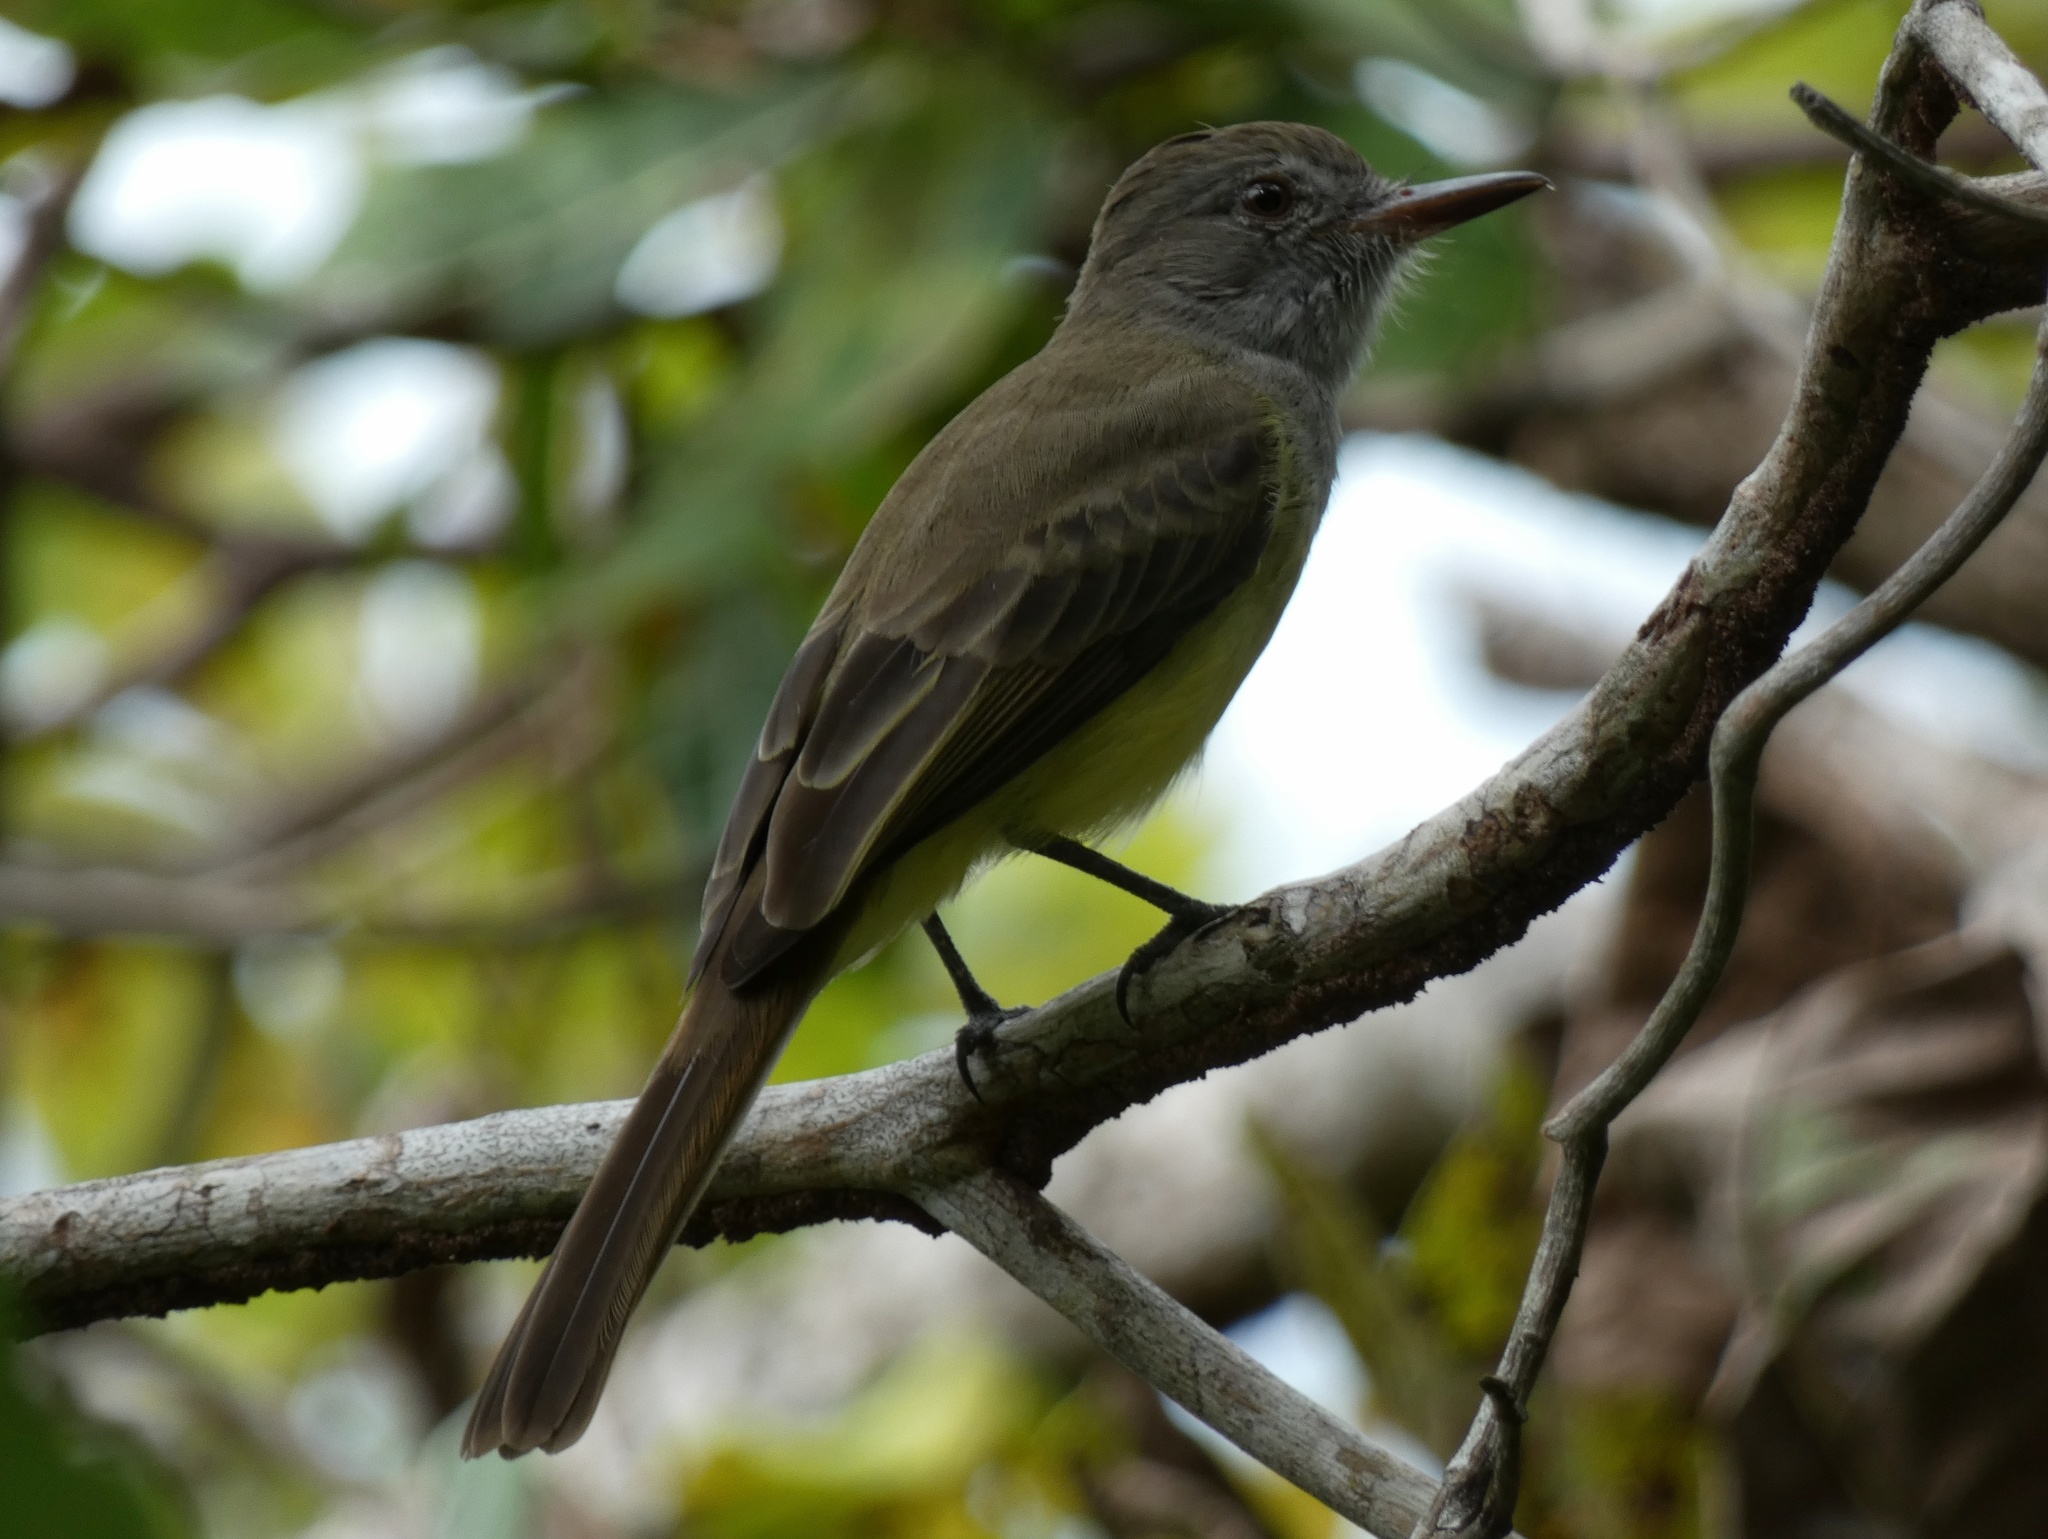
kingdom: Animalia
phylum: Chordata
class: Aves
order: Passeriformes
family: Tyrannidae
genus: Myiarchus
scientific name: Myiarchus panamensis
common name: Panama flycatcher
